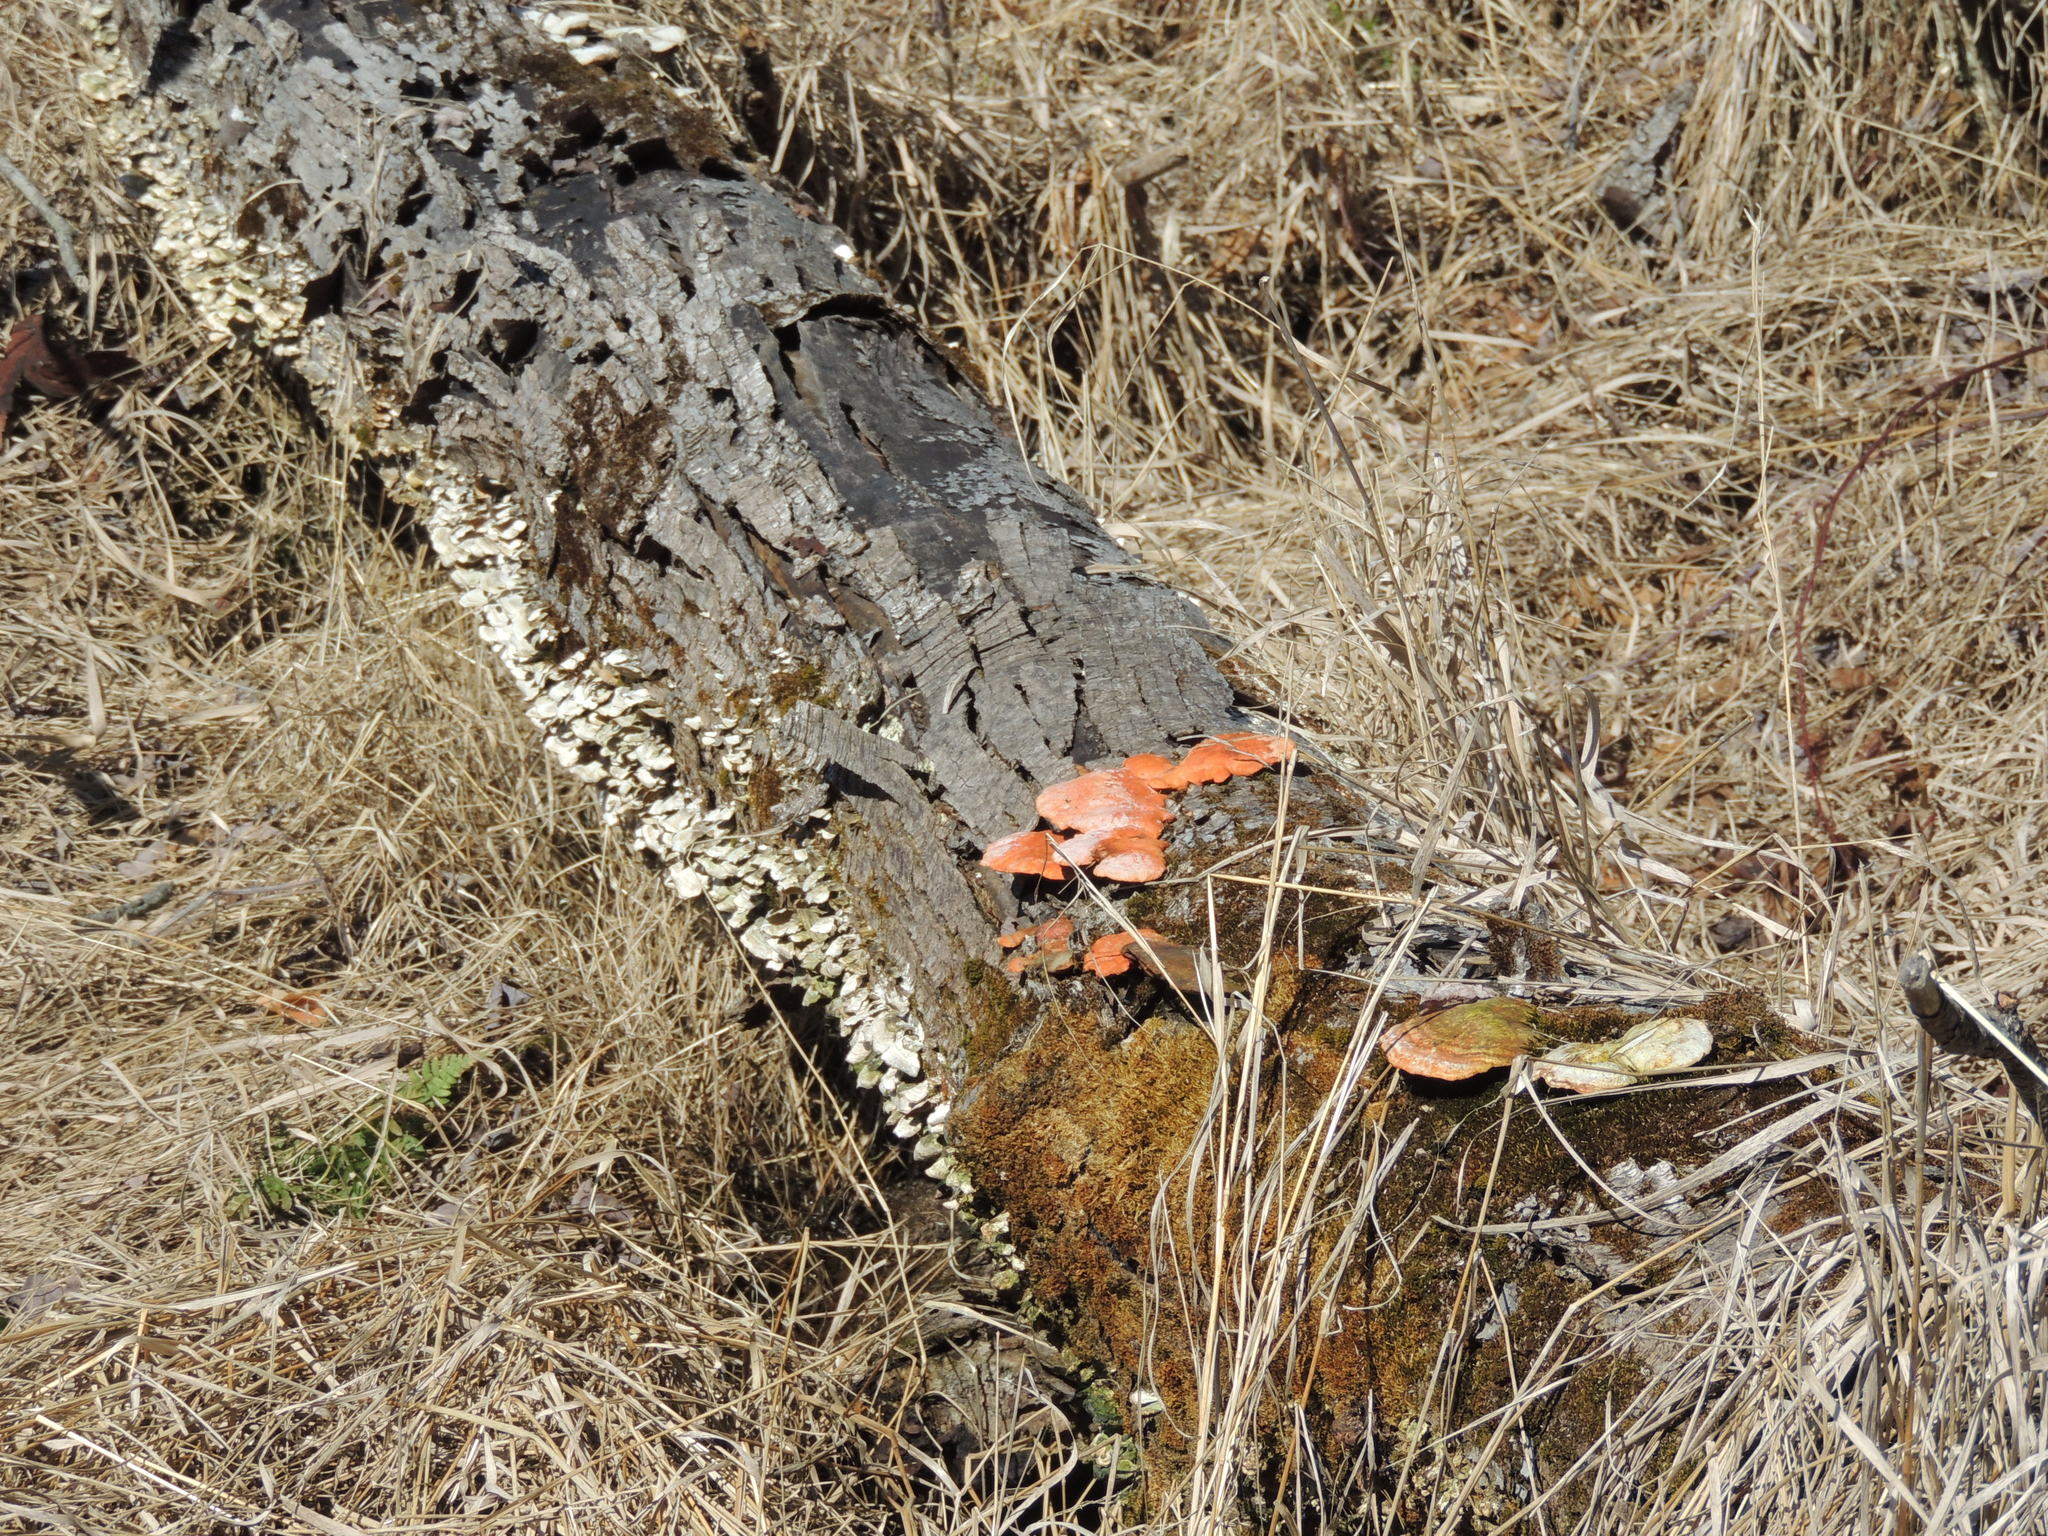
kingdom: Fungi
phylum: Basidiomycota
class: Agaricomycetes
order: Polyporales
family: Polyporaceae
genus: Trametes
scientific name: Trametes cinnabarina
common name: Northern cinnabar polypore
